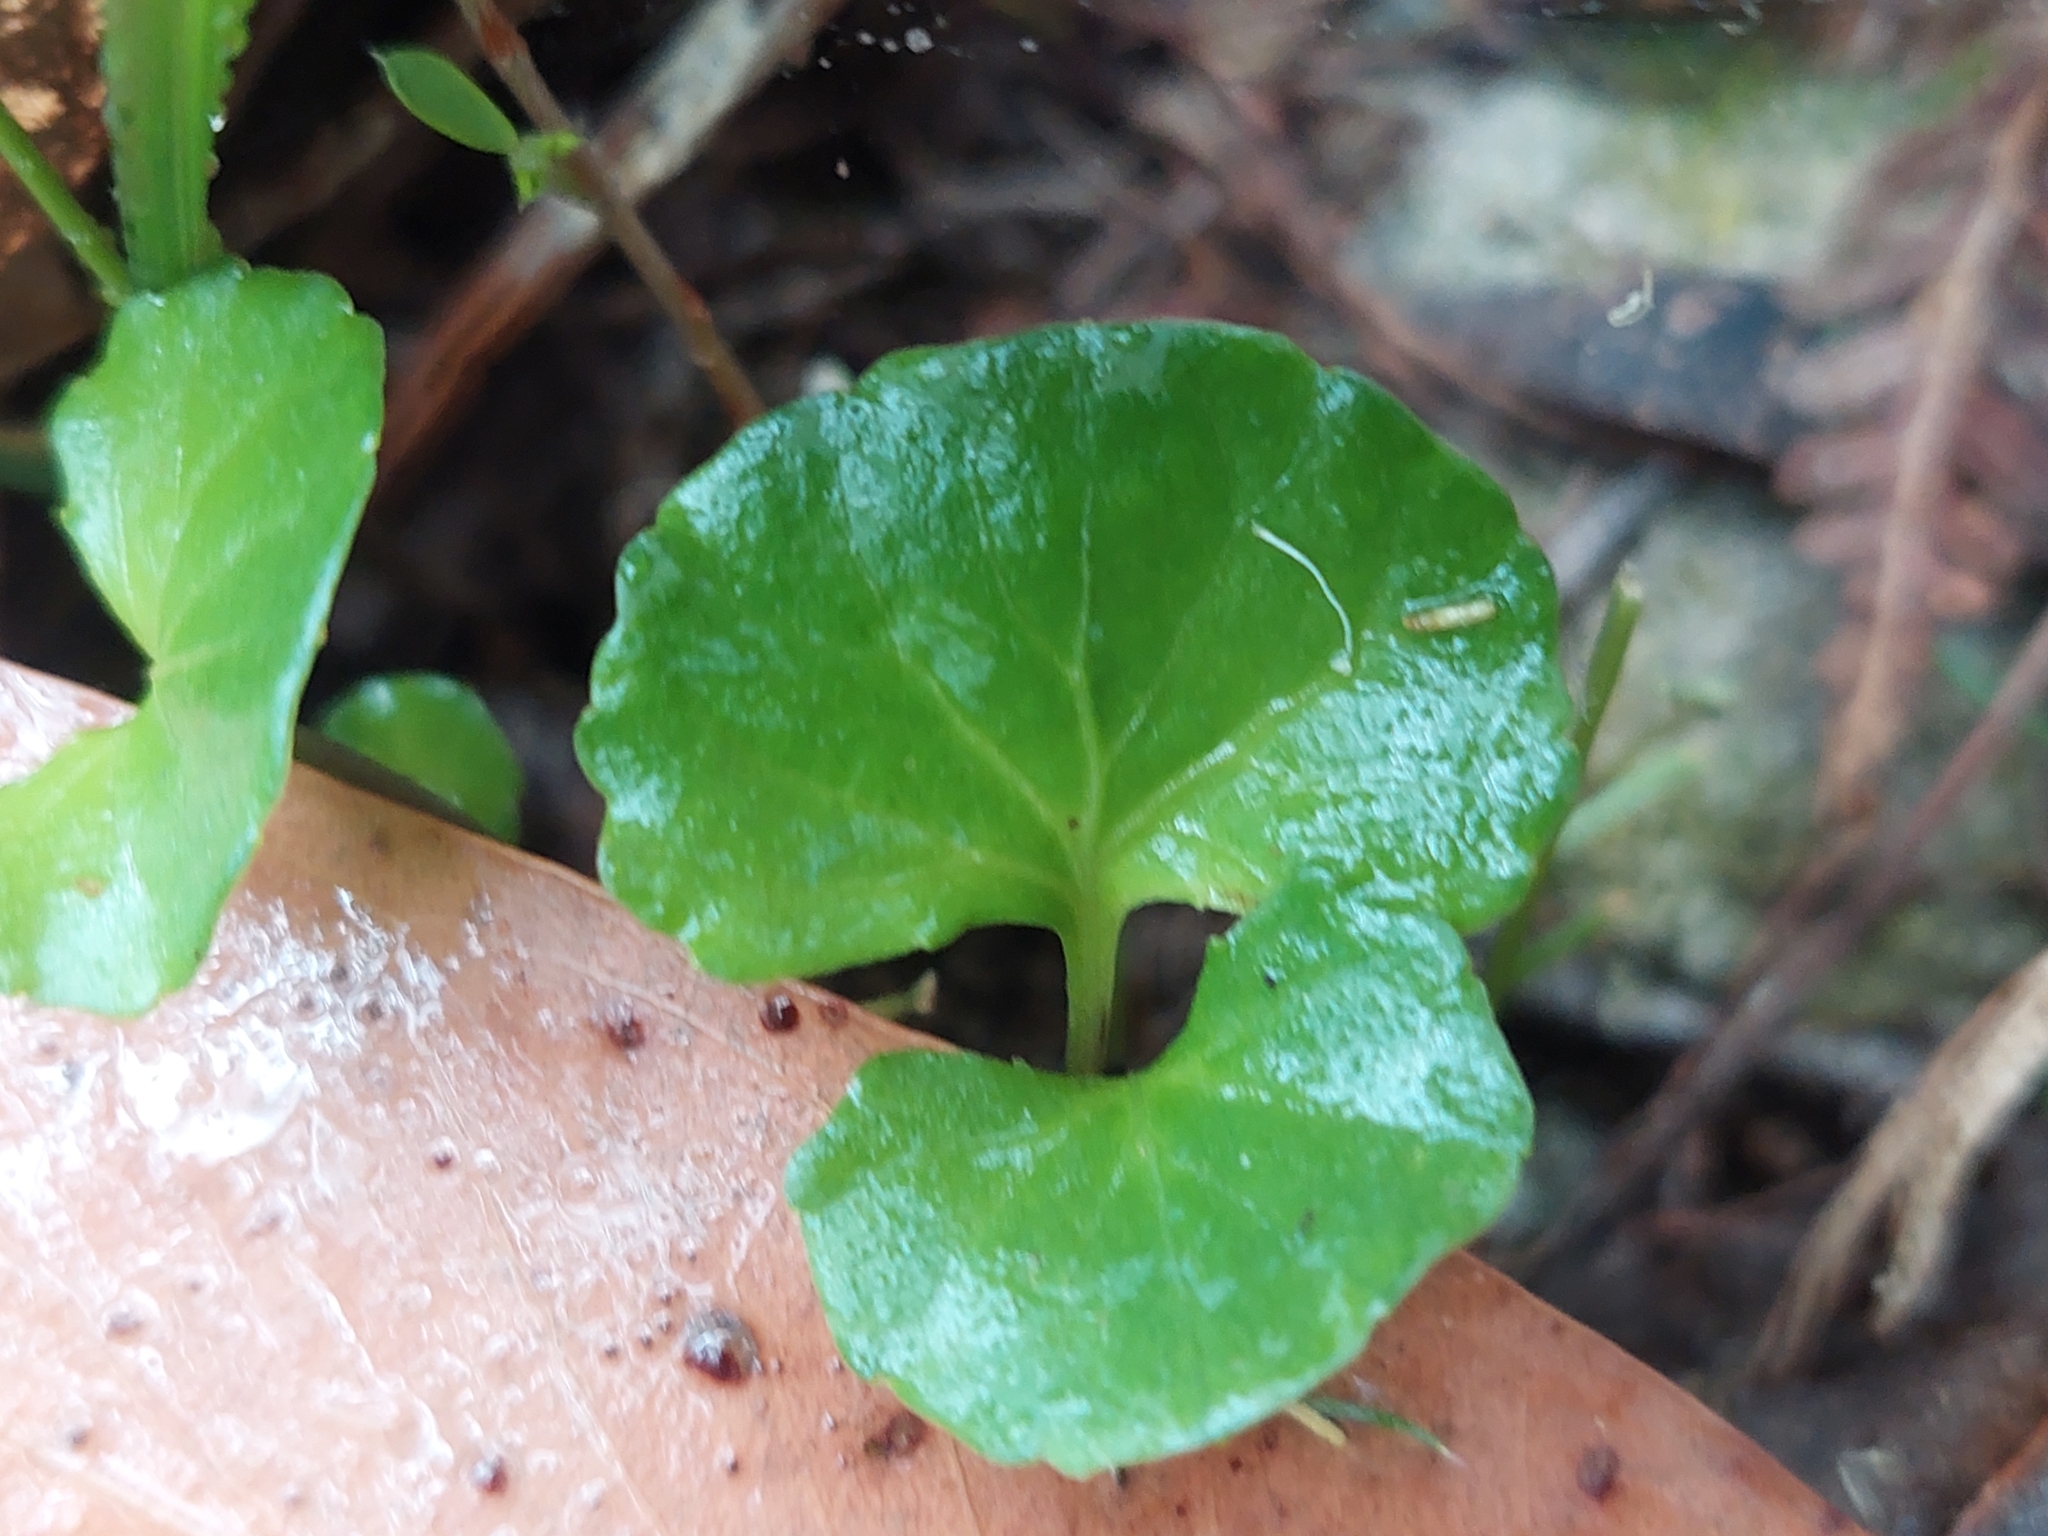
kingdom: Plantae
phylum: Tracheophyta
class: Magnoliopsida
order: Malpighiales
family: Violaceae
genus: Viola
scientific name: Viola hederacea
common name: Australian violet
